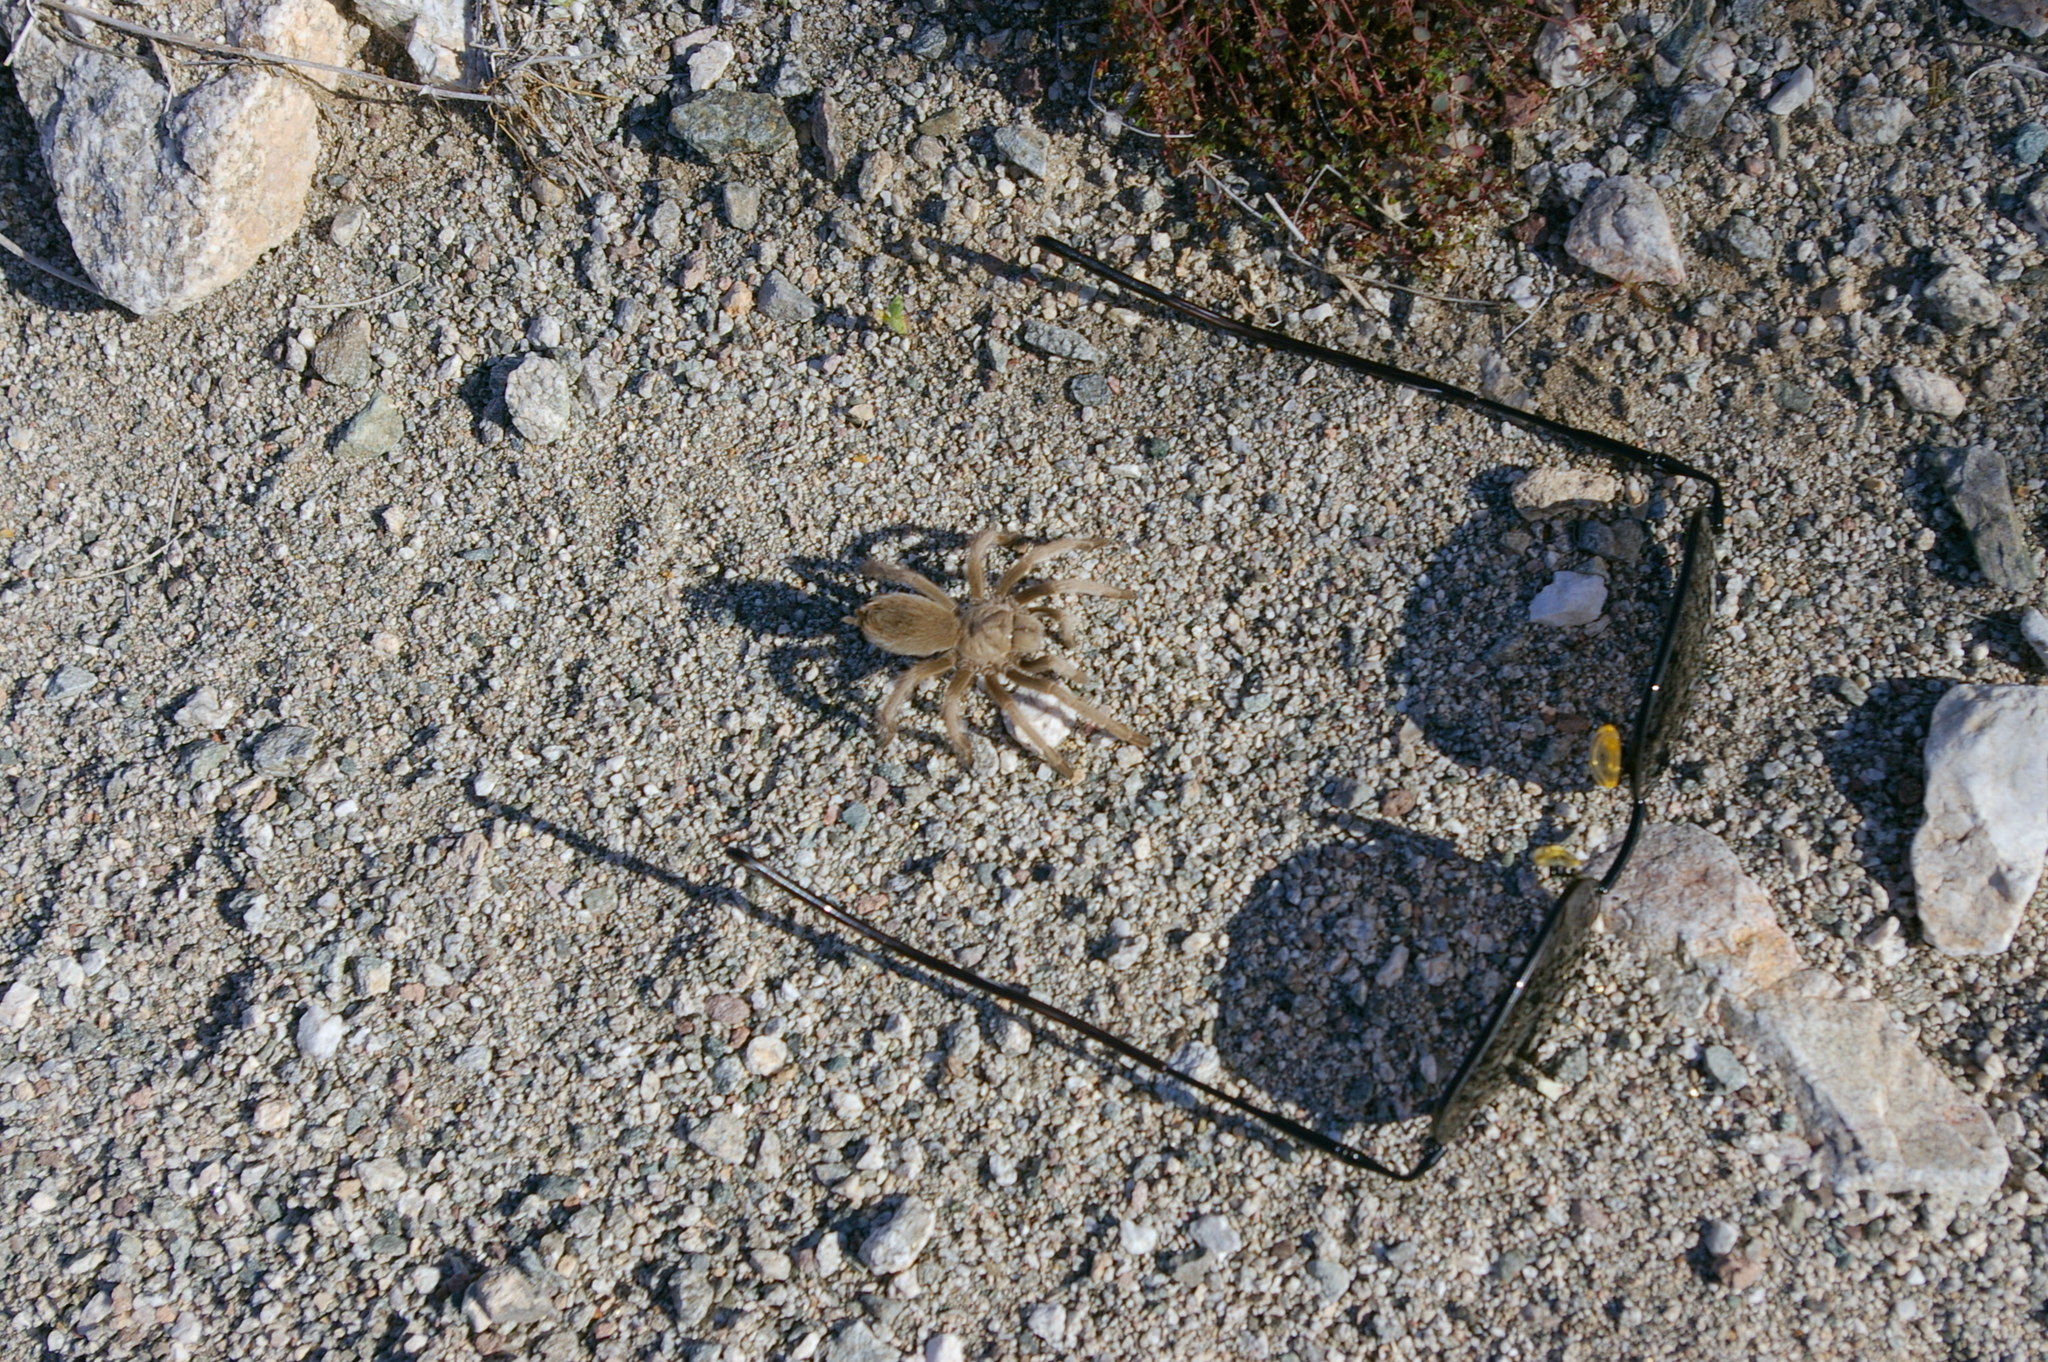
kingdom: Animalia
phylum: Arthropoda
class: Arachnida
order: Araneae
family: Theraphosidae
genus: Aphonopelma
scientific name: Aphonopelma iodius
